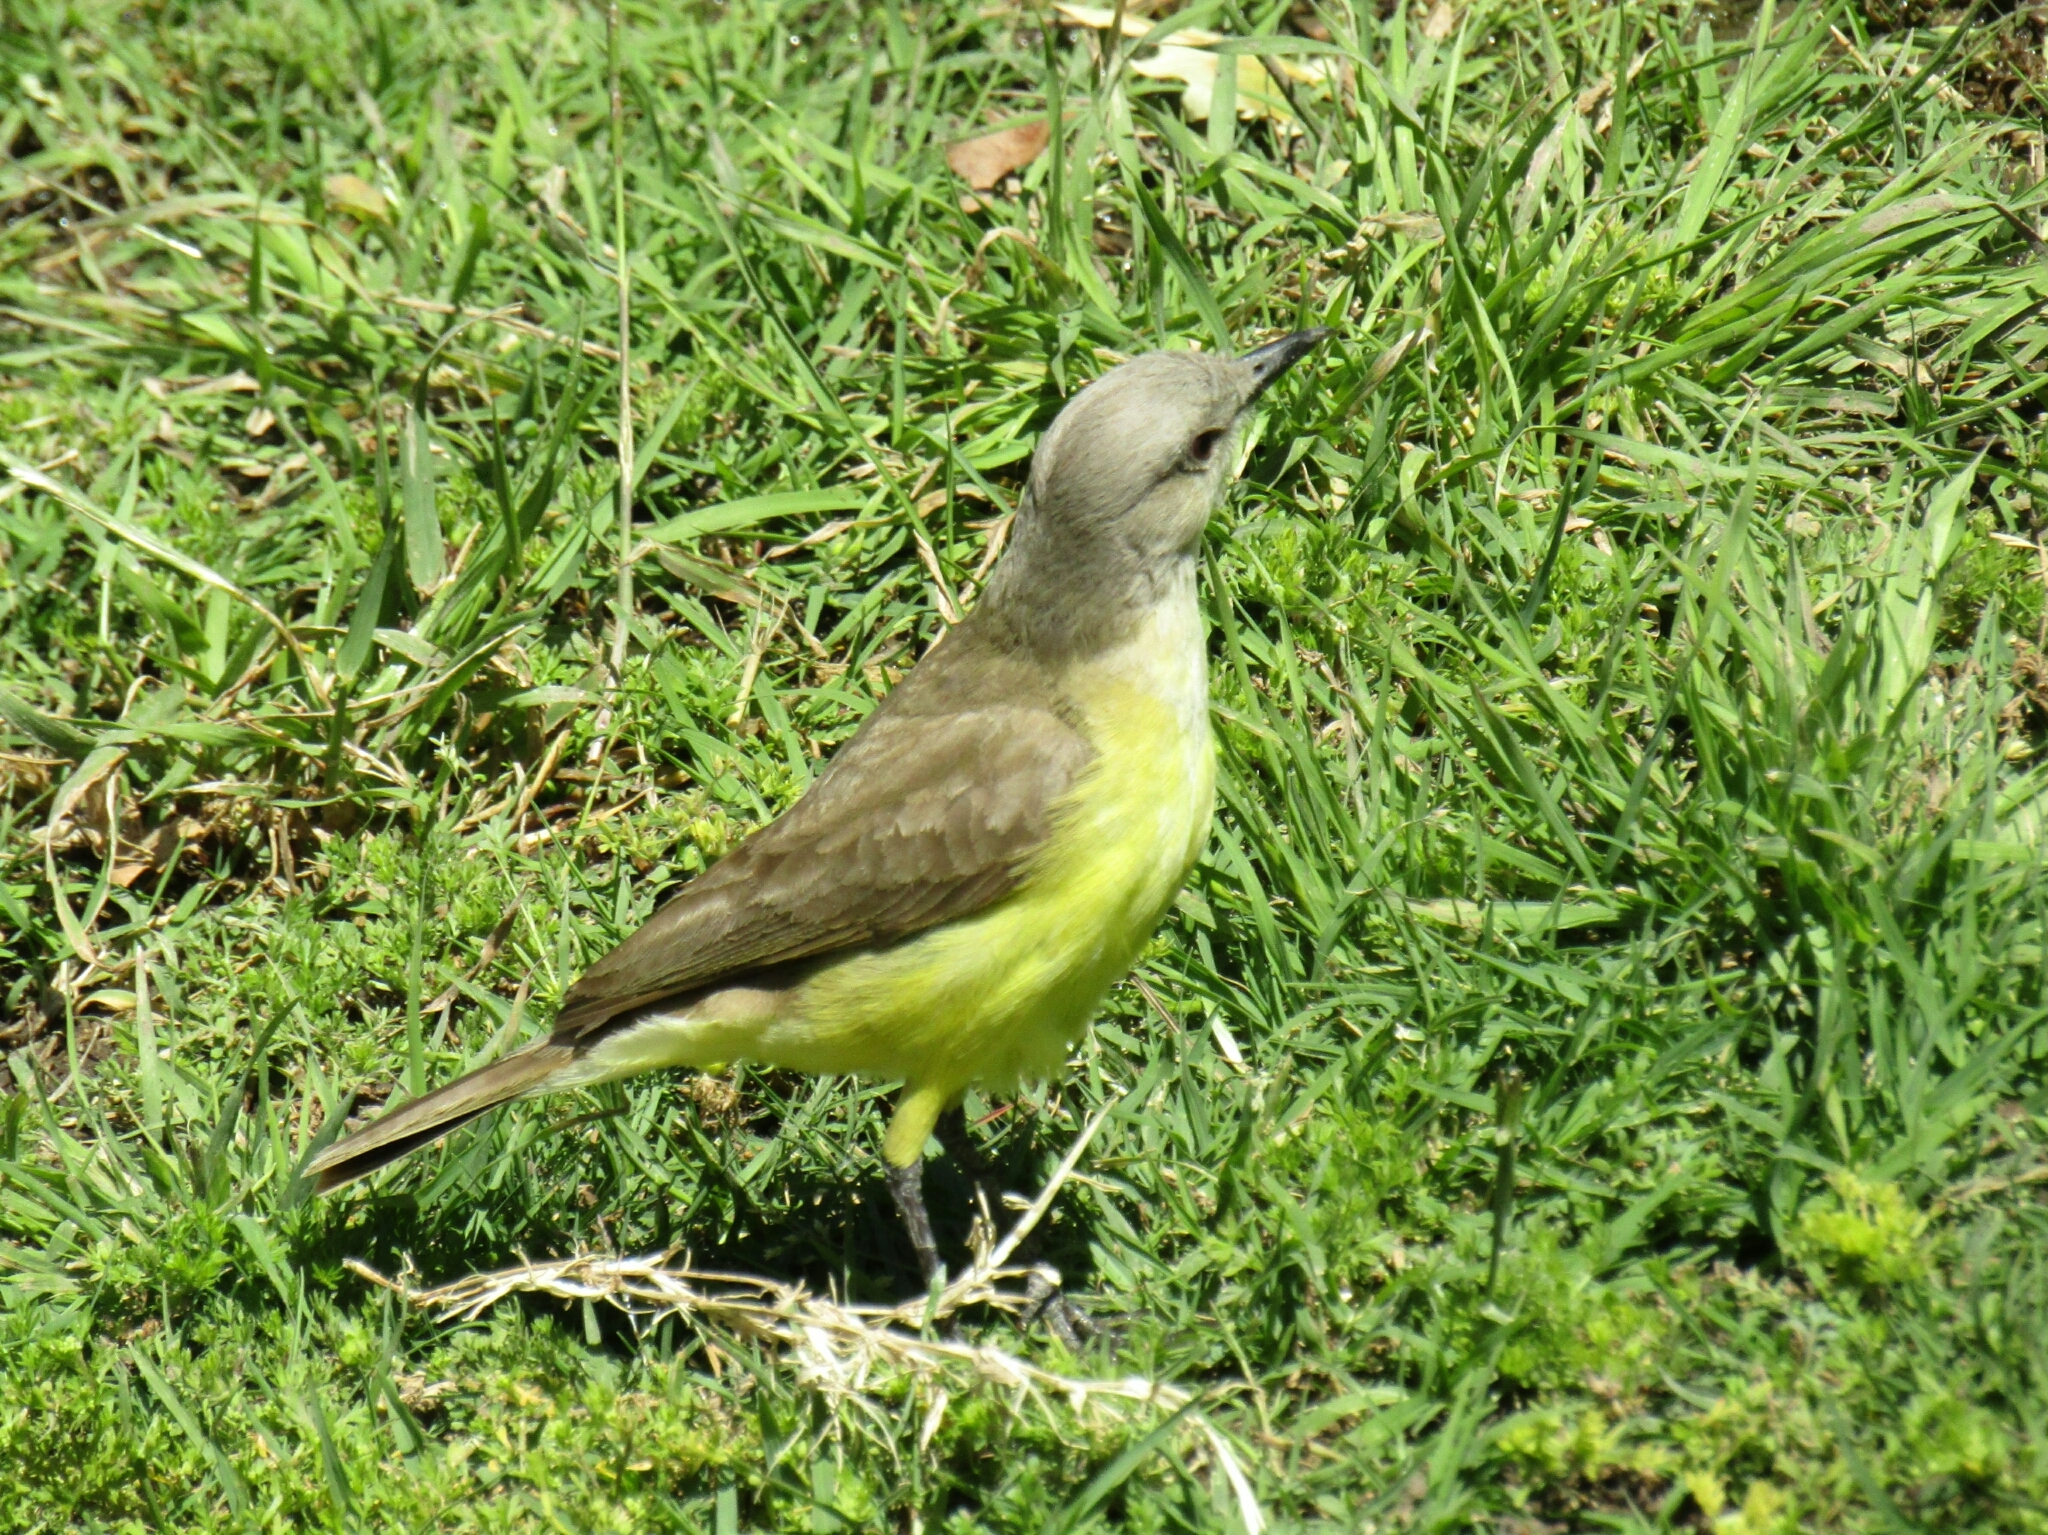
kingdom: Animalia
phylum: Chordata
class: Aves
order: Passeriformes
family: Tyrannidae
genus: Machetornis
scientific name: Machetornis rixosa
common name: Cattle tyrant
